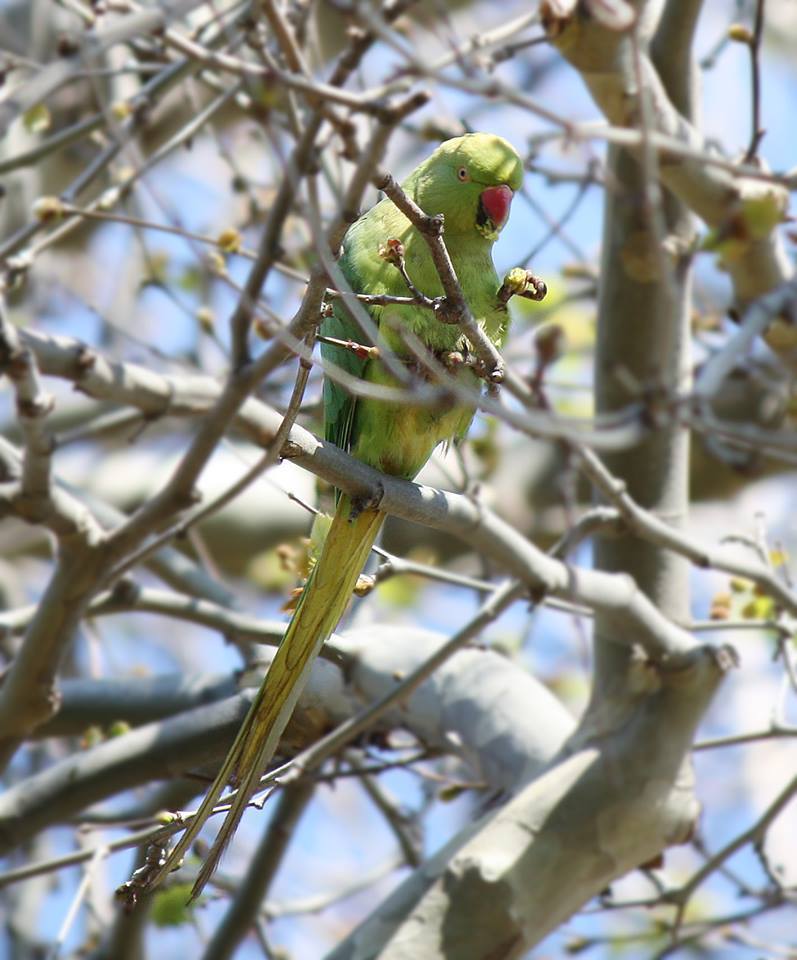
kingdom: Animalia
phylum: Chordata
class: Aves
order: Psittaciformes
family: Psittacidae
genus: Psittacula
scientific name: Psittacula krameri
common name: Rose-ringed parakeet
